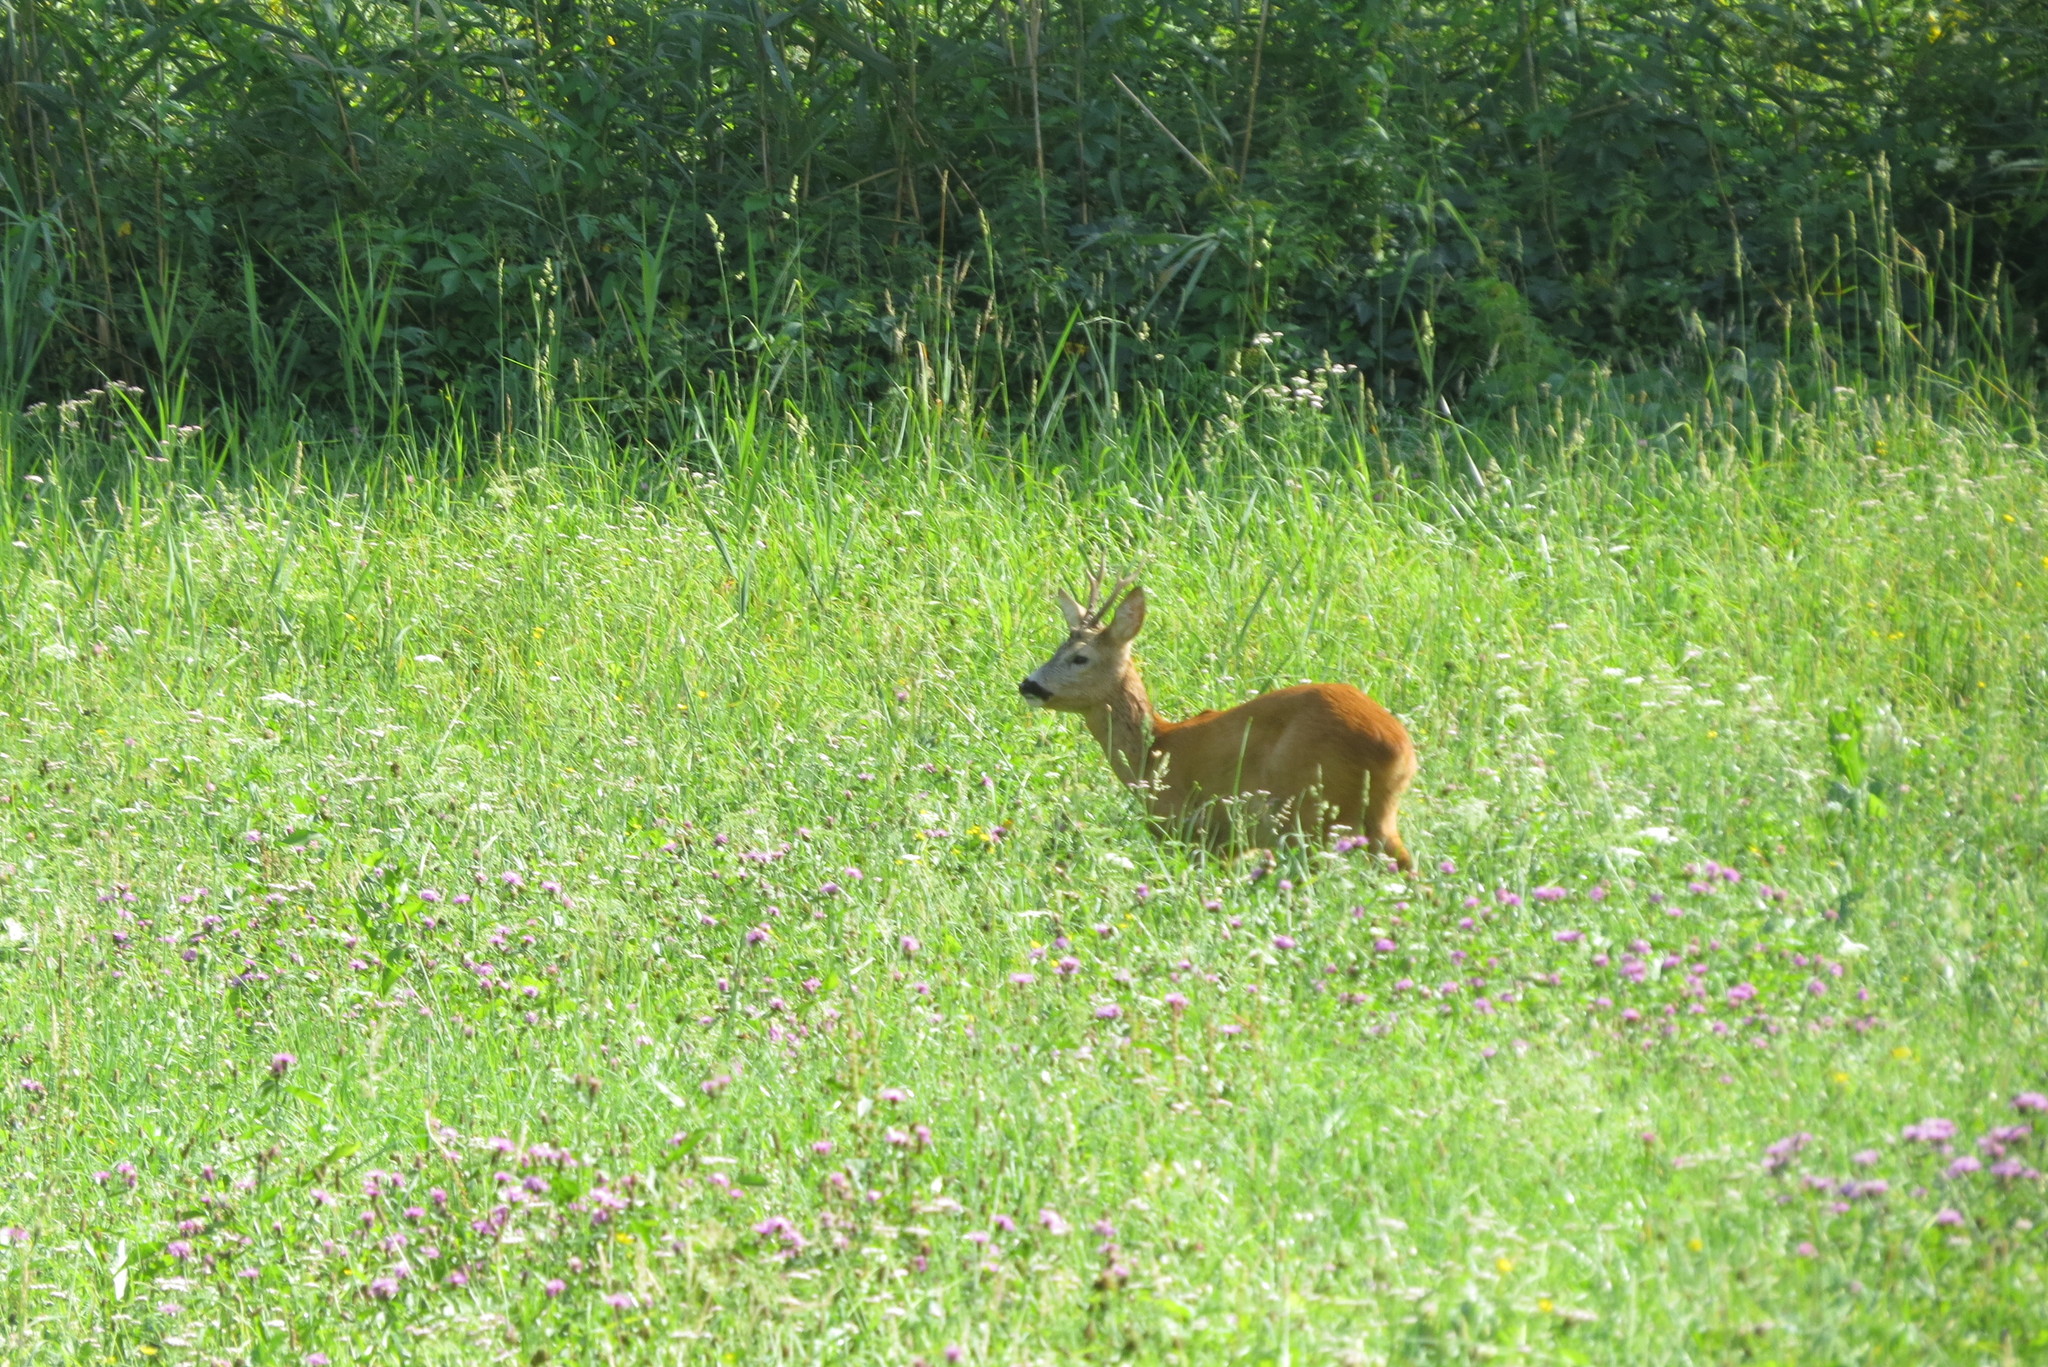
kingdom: Animalia
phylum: Chordata
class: Mammalia
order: Artiodactyla
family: Cervidae
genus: Capreolus
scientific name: Capreolus capreolus
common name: Western roe deer
